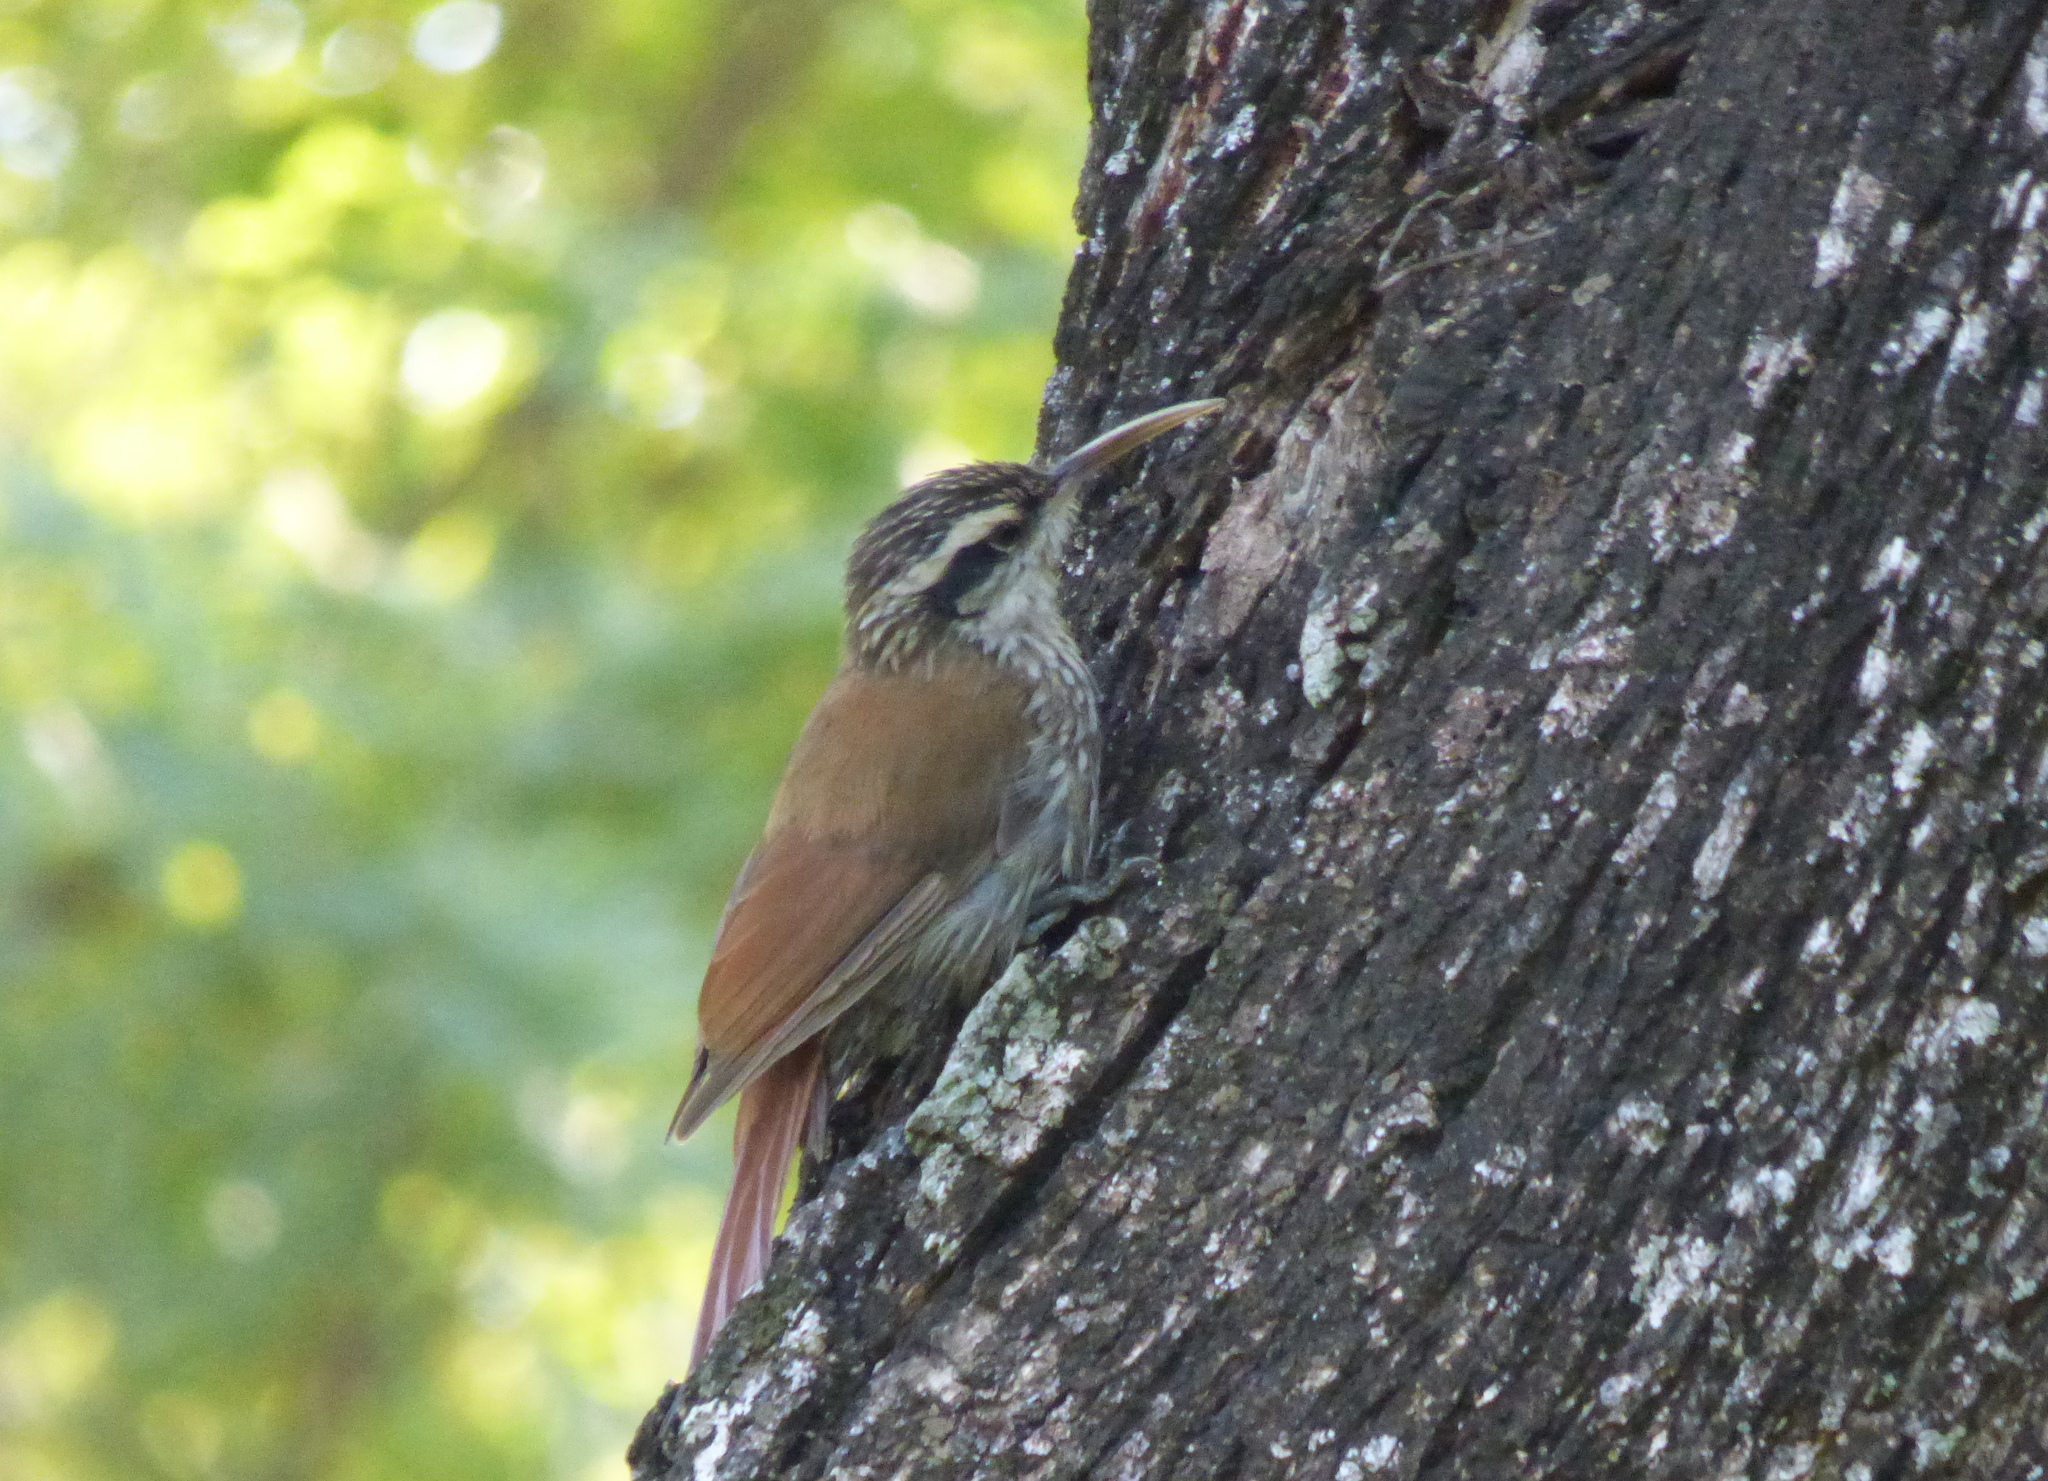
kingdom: Animalia
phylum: Chordata
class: Aves
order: Passeriformes
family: Furnariidae
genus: Lepidocolaptes
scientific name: Lepidocolaptes angustirostris
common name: Narrow-billed woodcreeper
